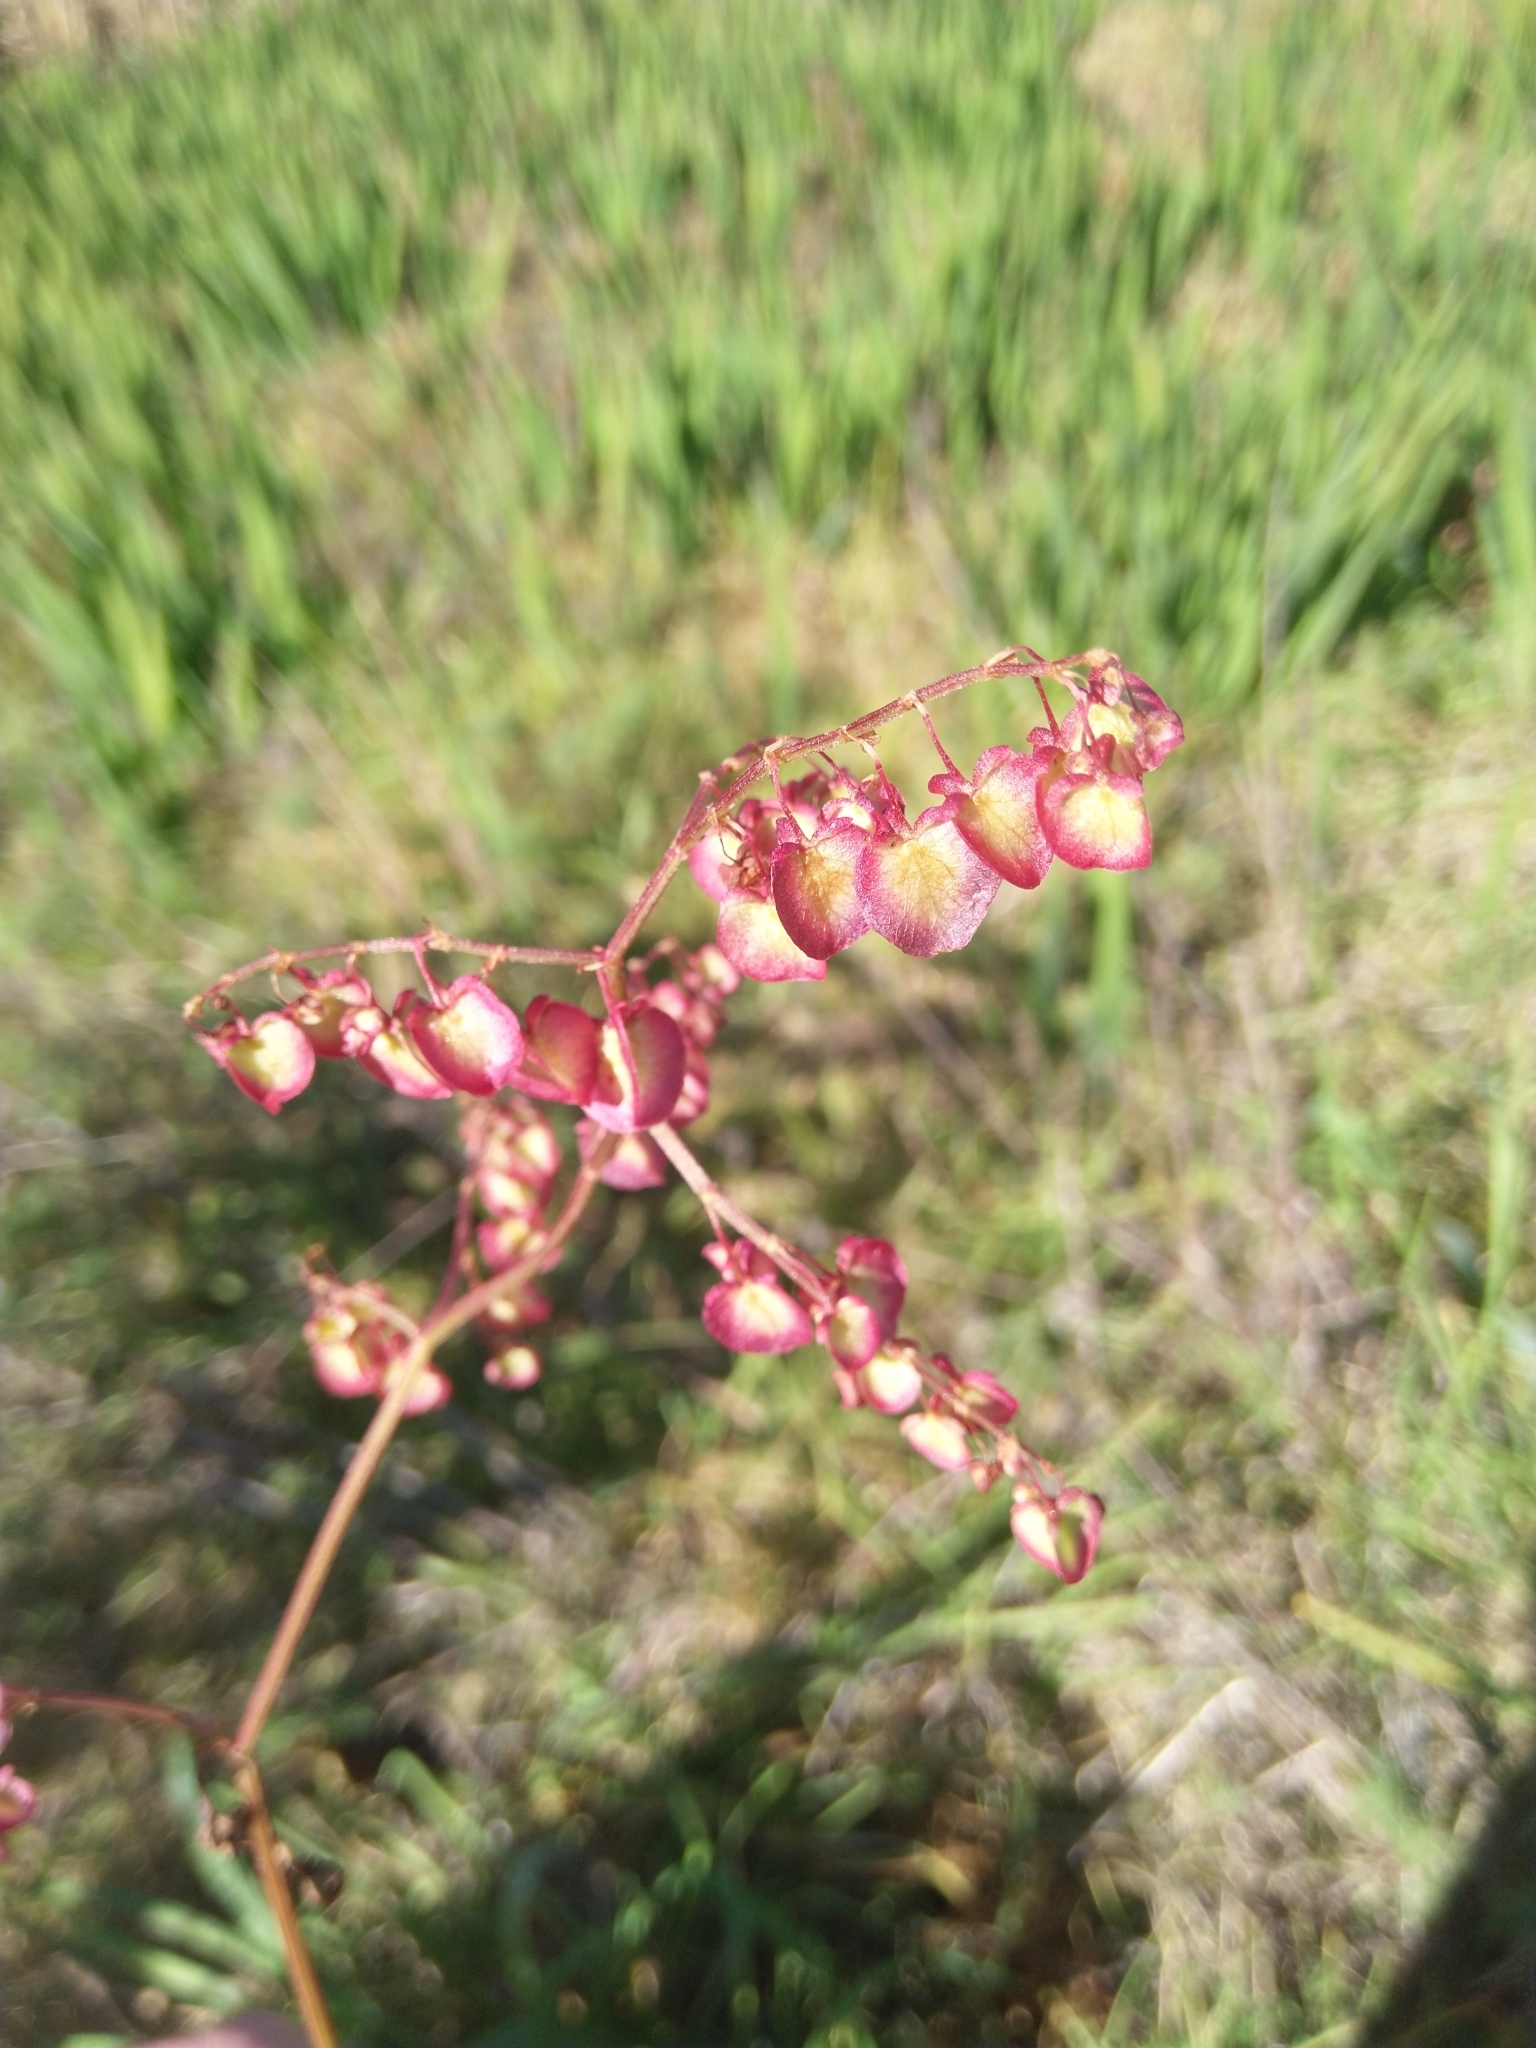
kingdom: Plantae
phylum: Tracheophyta
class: Magnoliopsida
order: Caryophyllales
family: Polygonaceae
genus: Rumex
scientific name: Rumex sagittatus
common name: Climbing dock
